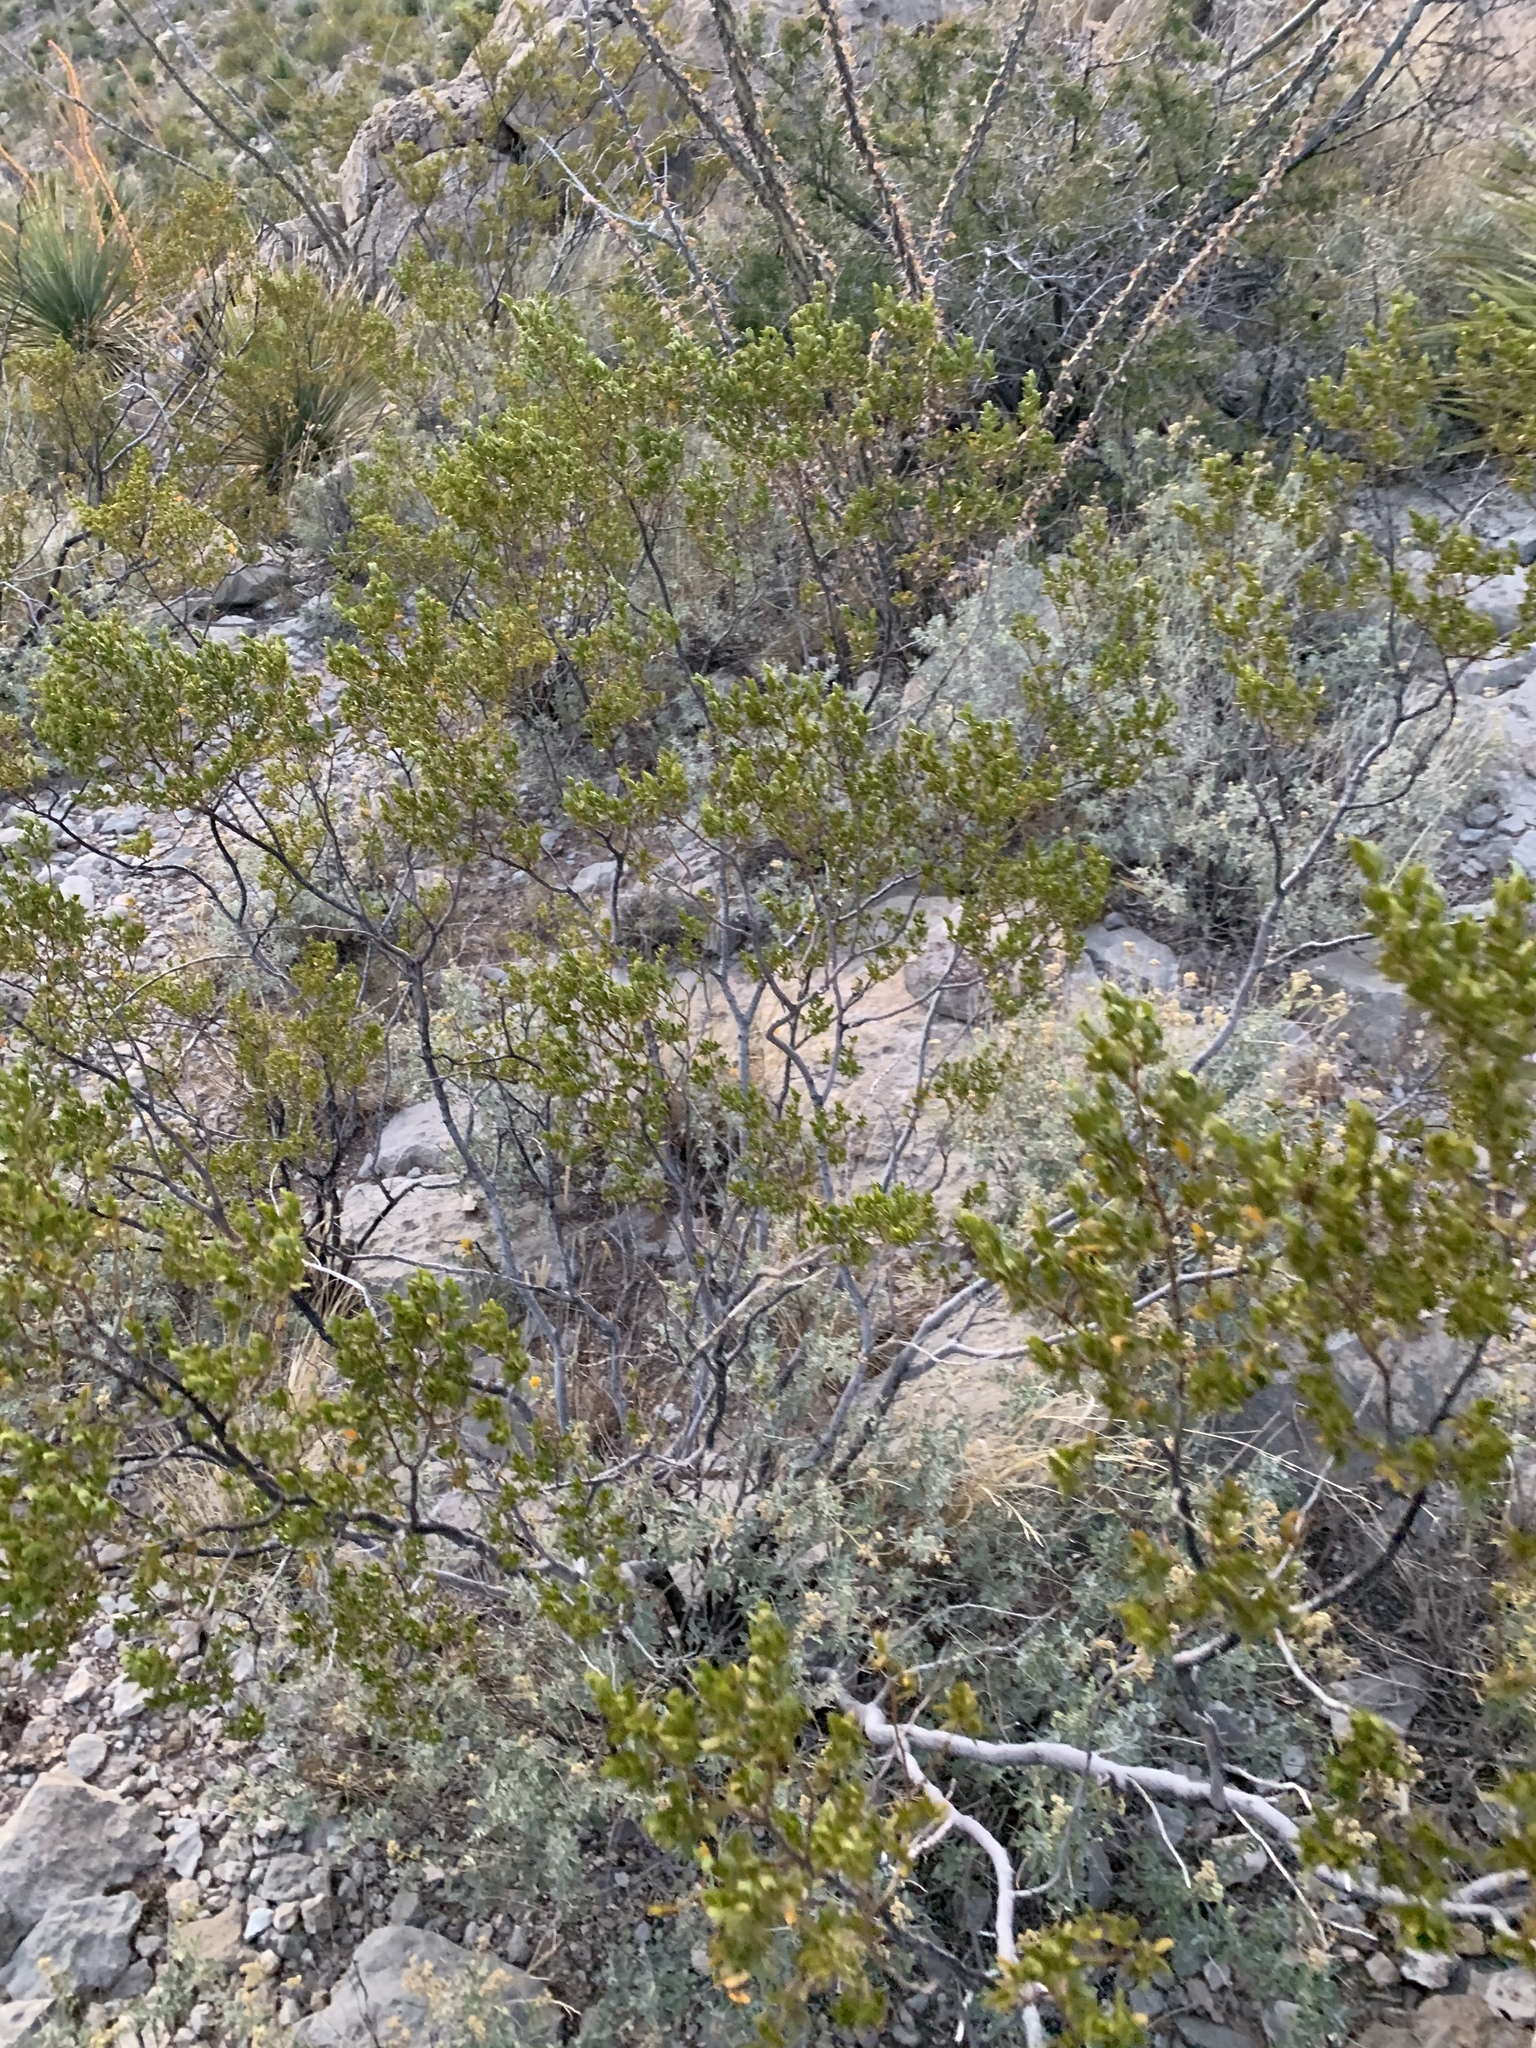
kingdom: Plantae
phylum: Tracheophyta
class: Magnoliopsida
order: Zygophyllales
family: Zygophyllaceae
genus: Larrea
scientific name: Larrea tridentata
